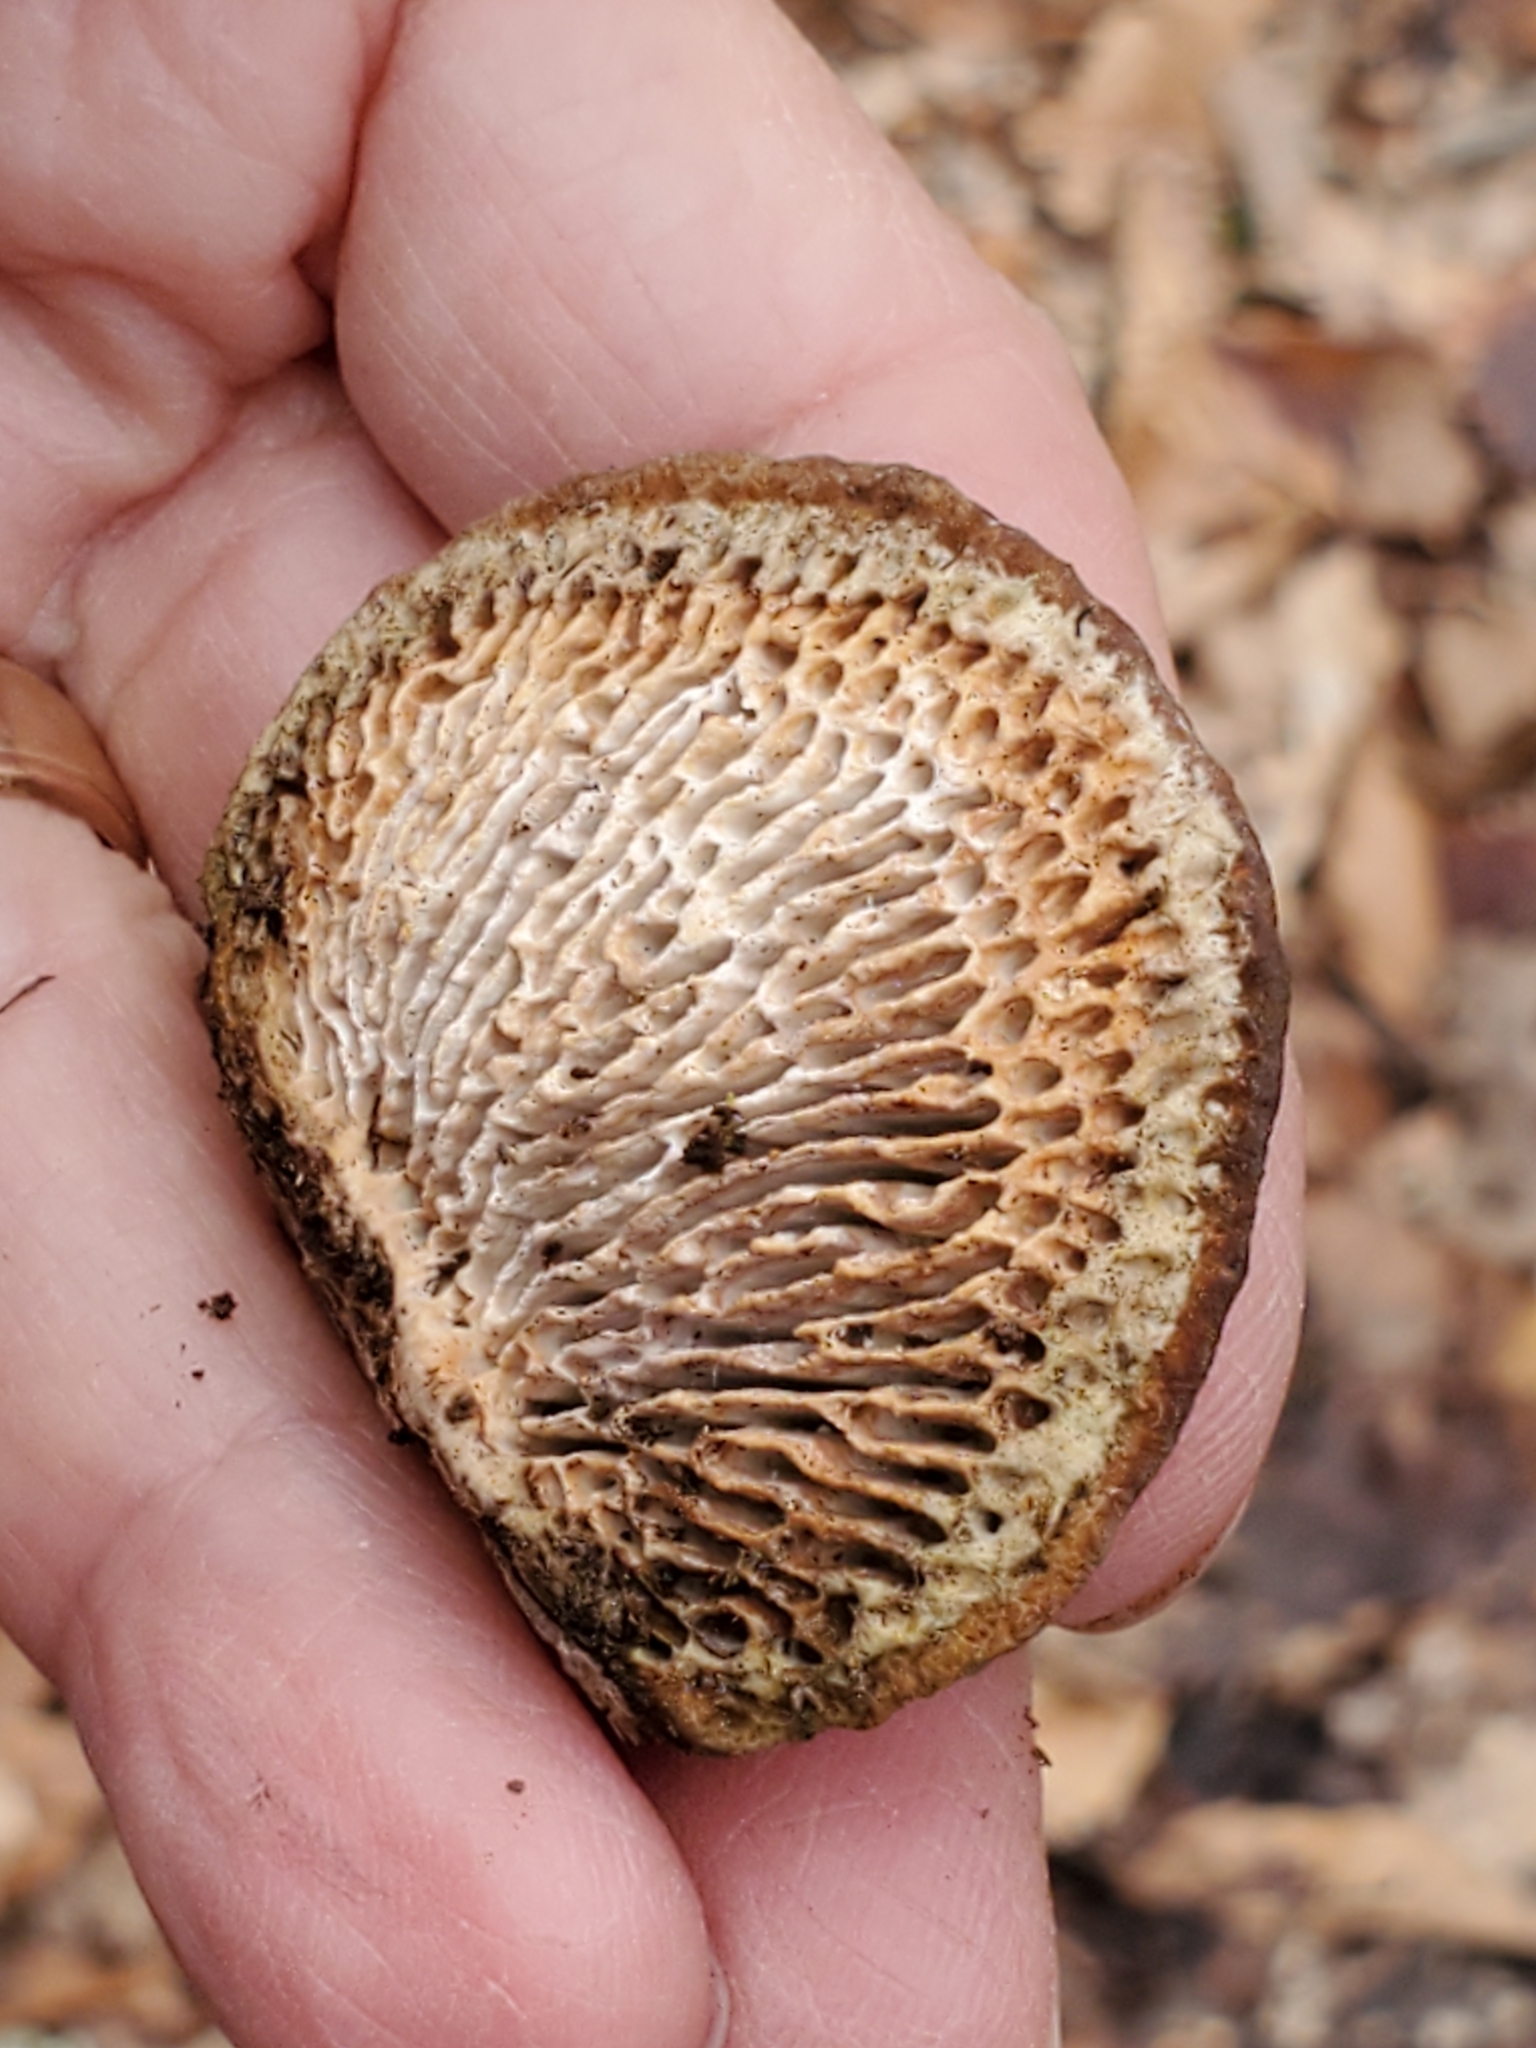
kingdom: Fungi
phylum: Basidiomycota
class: Agaricomycetes
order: Polyporales
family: Fomitopsidaceae
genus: Fomitopsis
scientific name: Fomitopsis
